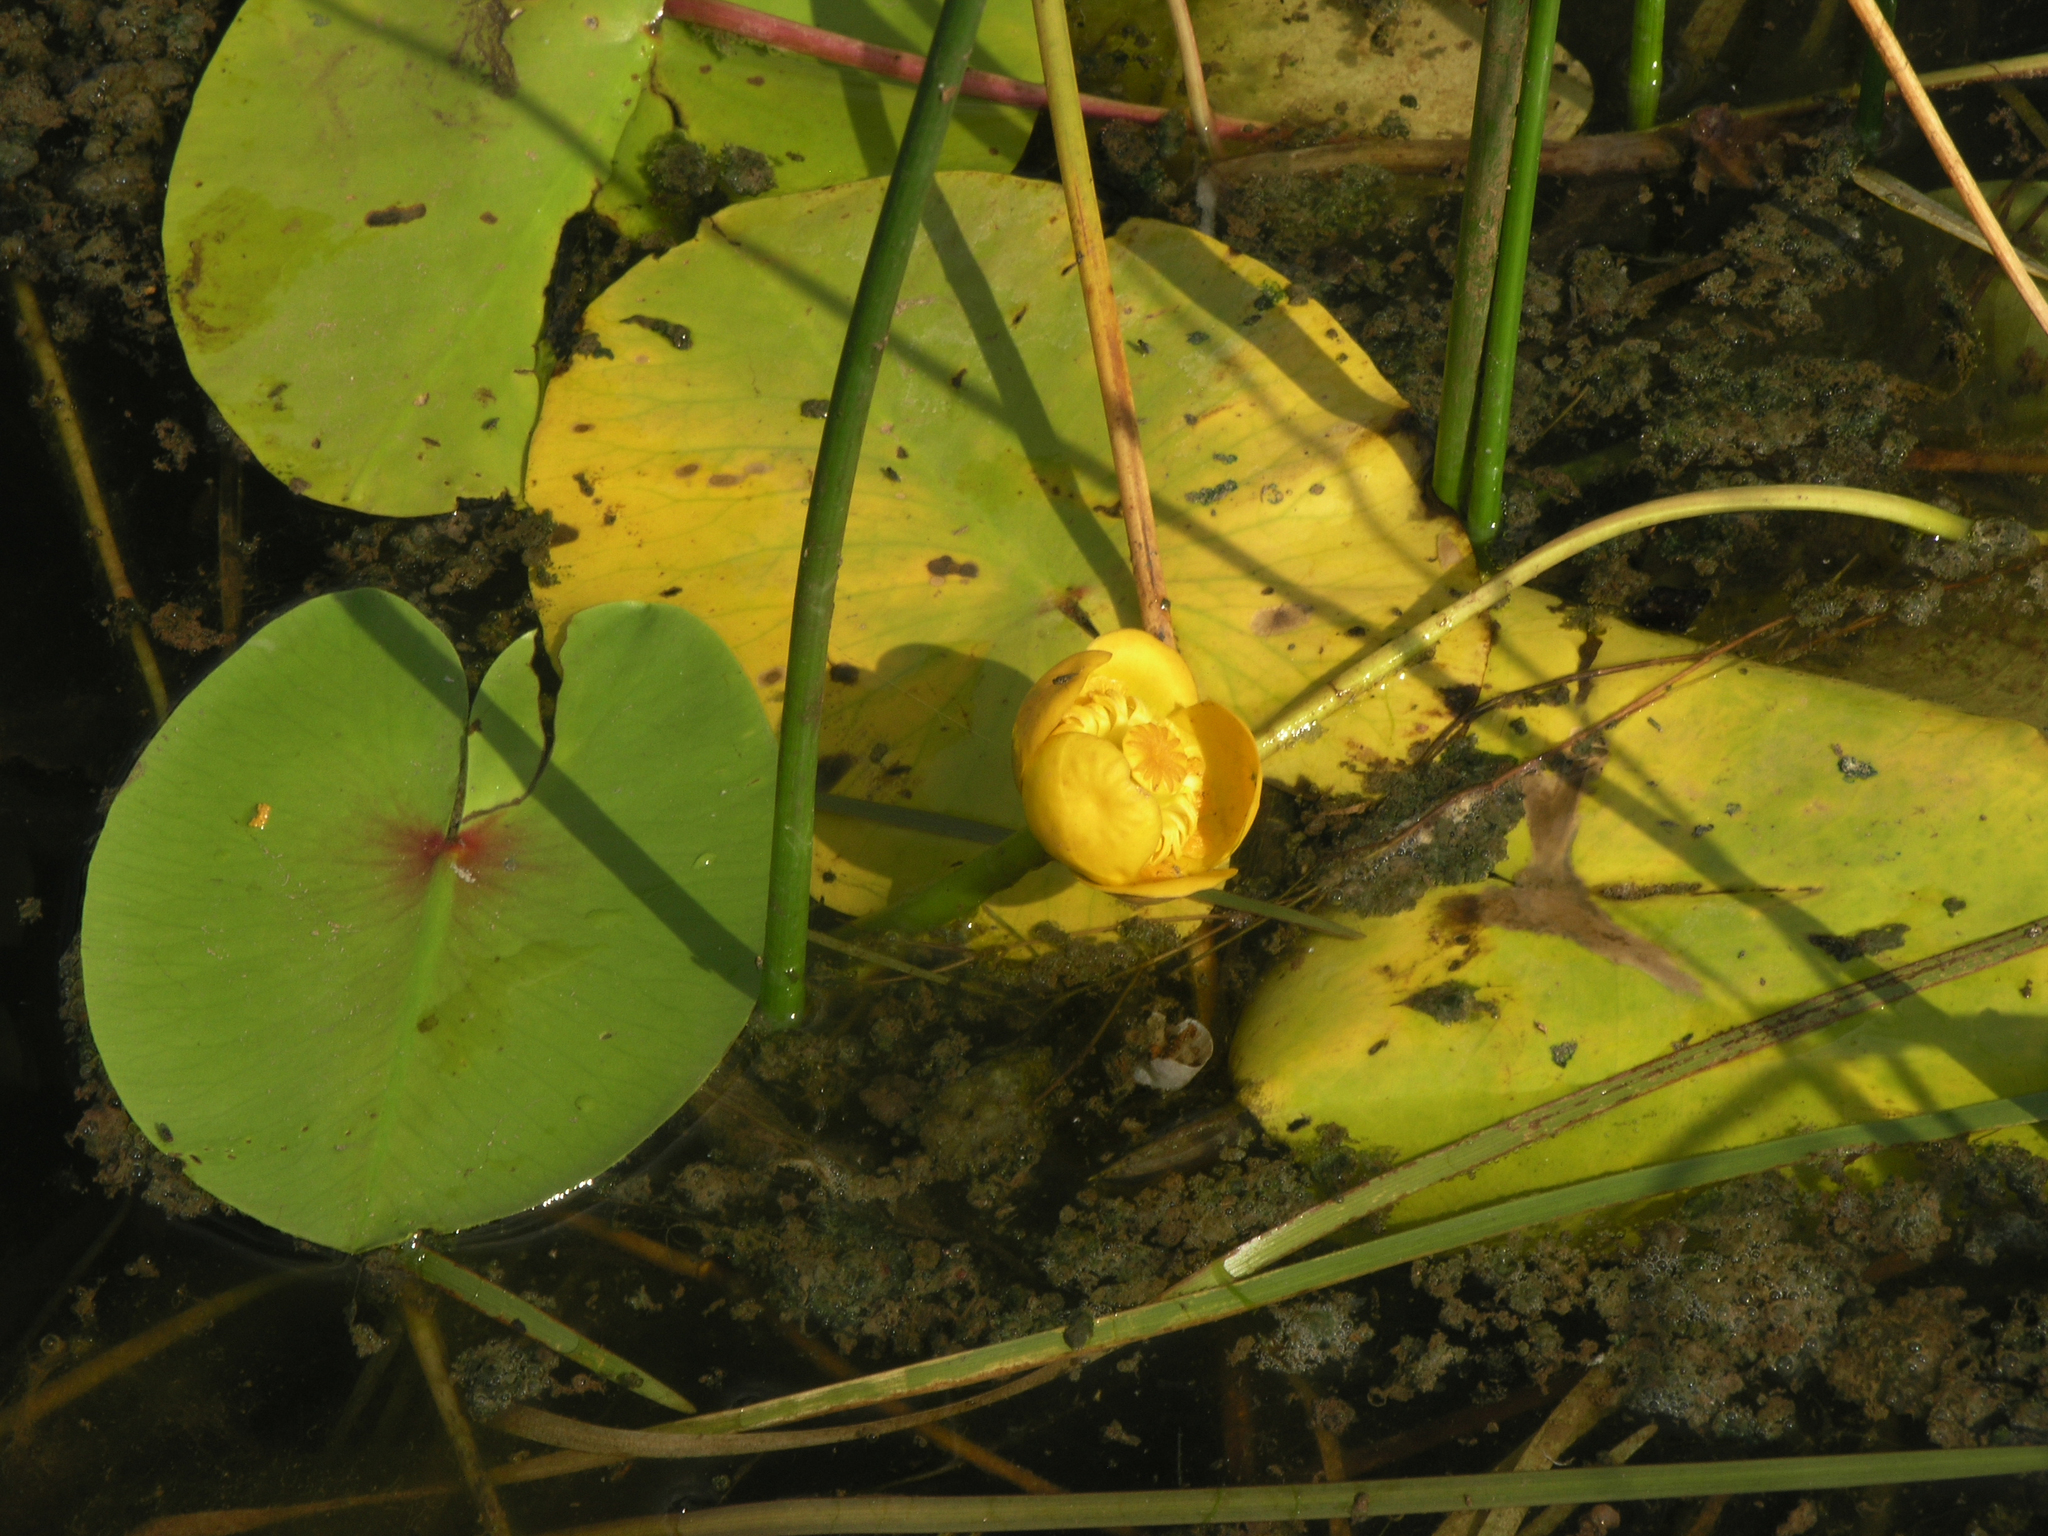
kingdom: Plantae
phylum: Tracheophyta
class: Magnoliopsida
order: Nymphaeales
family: Nymphaeaceae
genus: Nuphar
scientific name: Nuphar lutea
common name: Yellow water-lily
